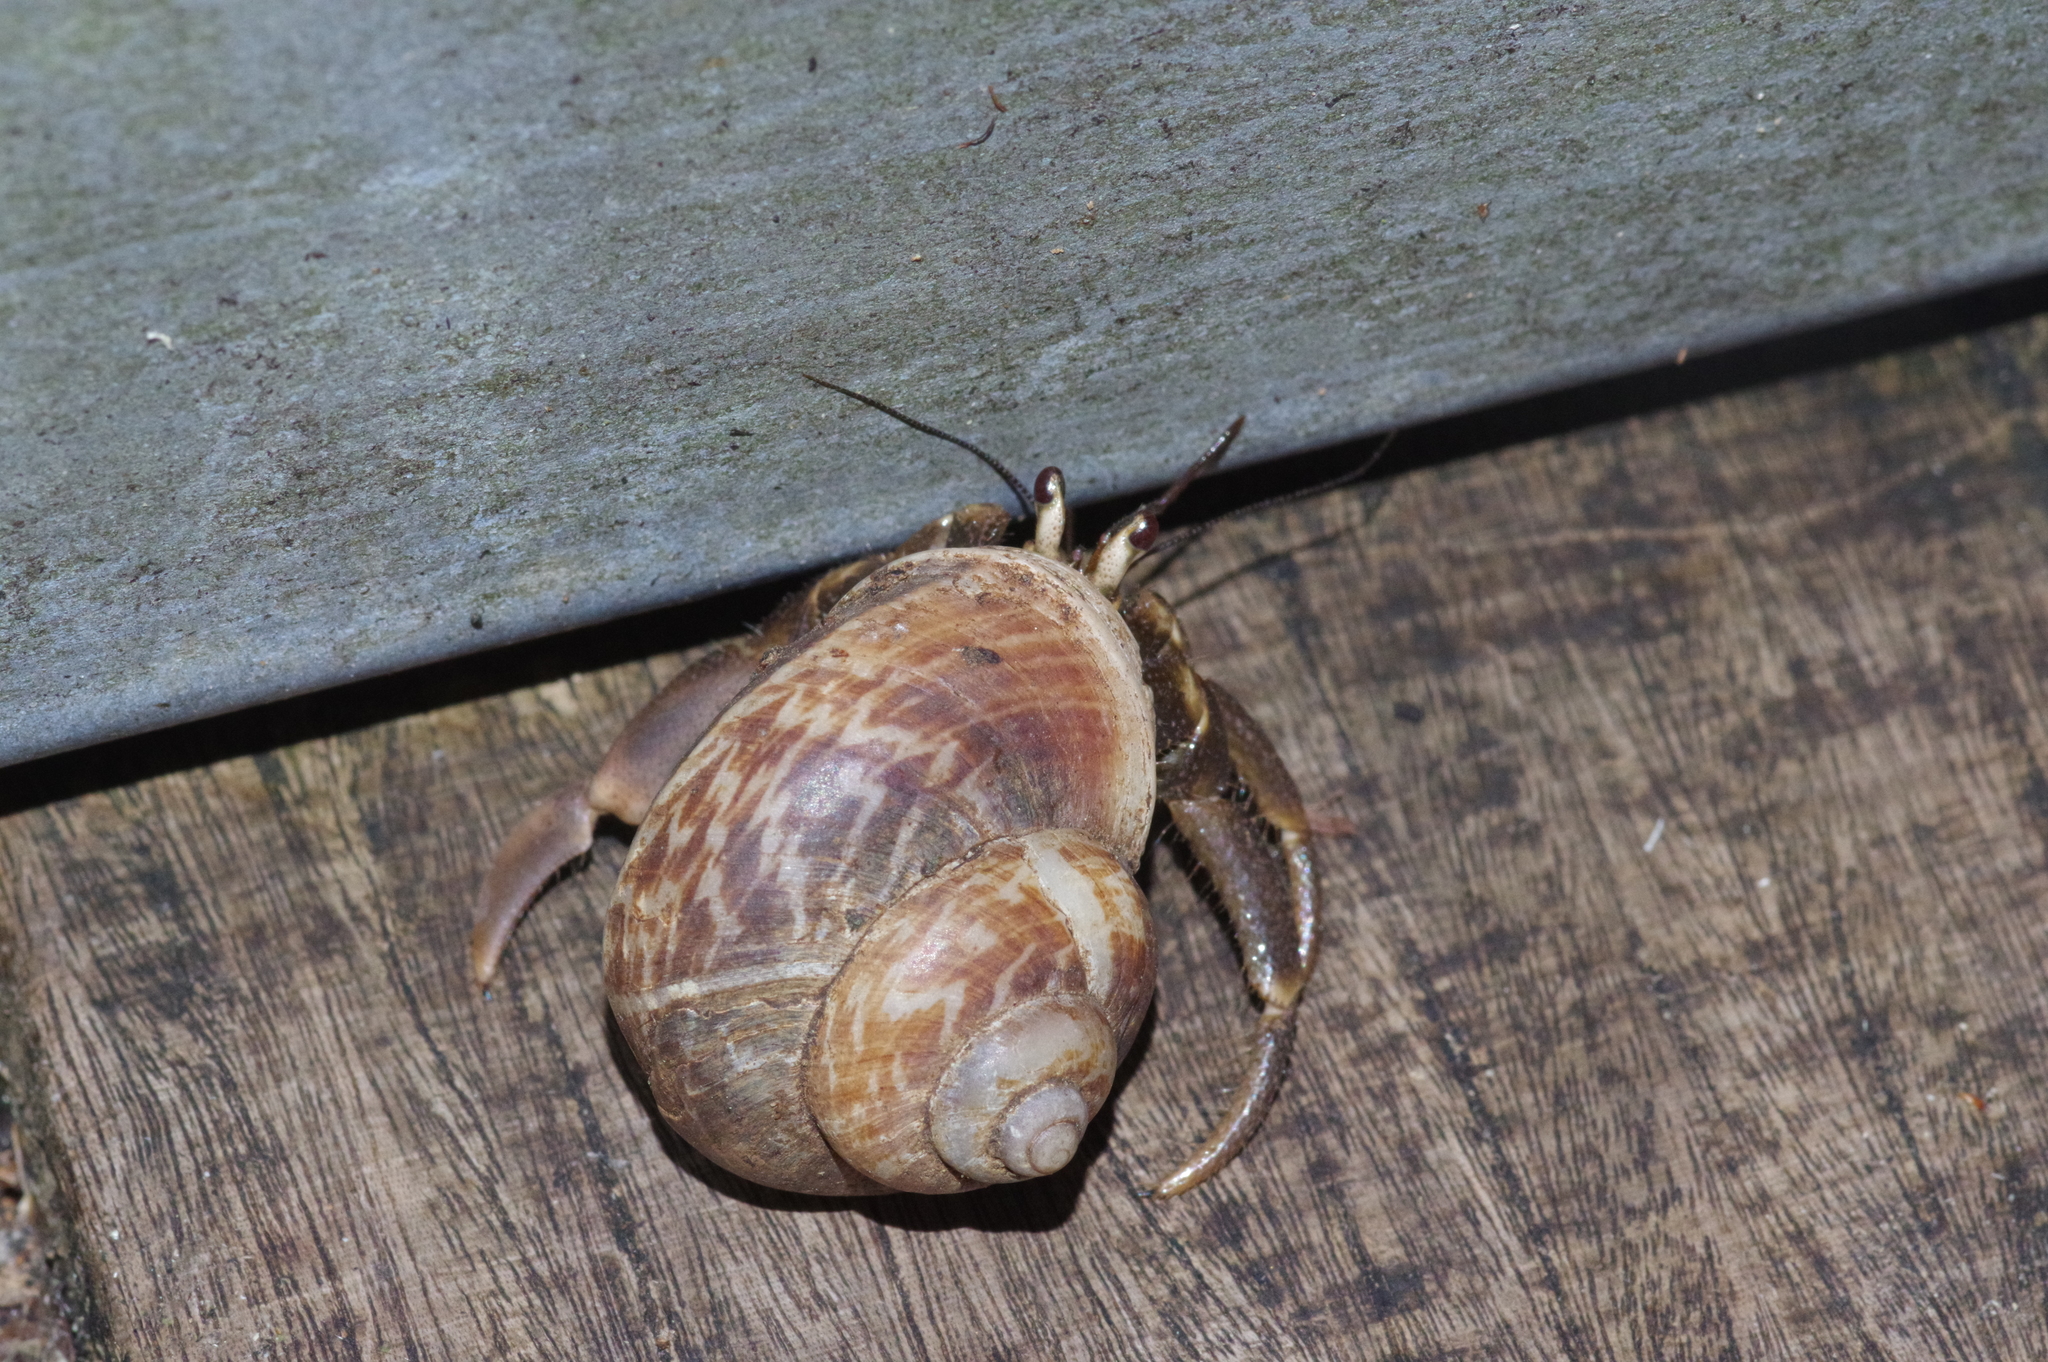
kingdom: Animalia
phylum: Arthropoda
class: Malacostraca
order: Decapoda
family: Coenobitidae
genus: Coenobita
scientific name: Coenobita cavipes
